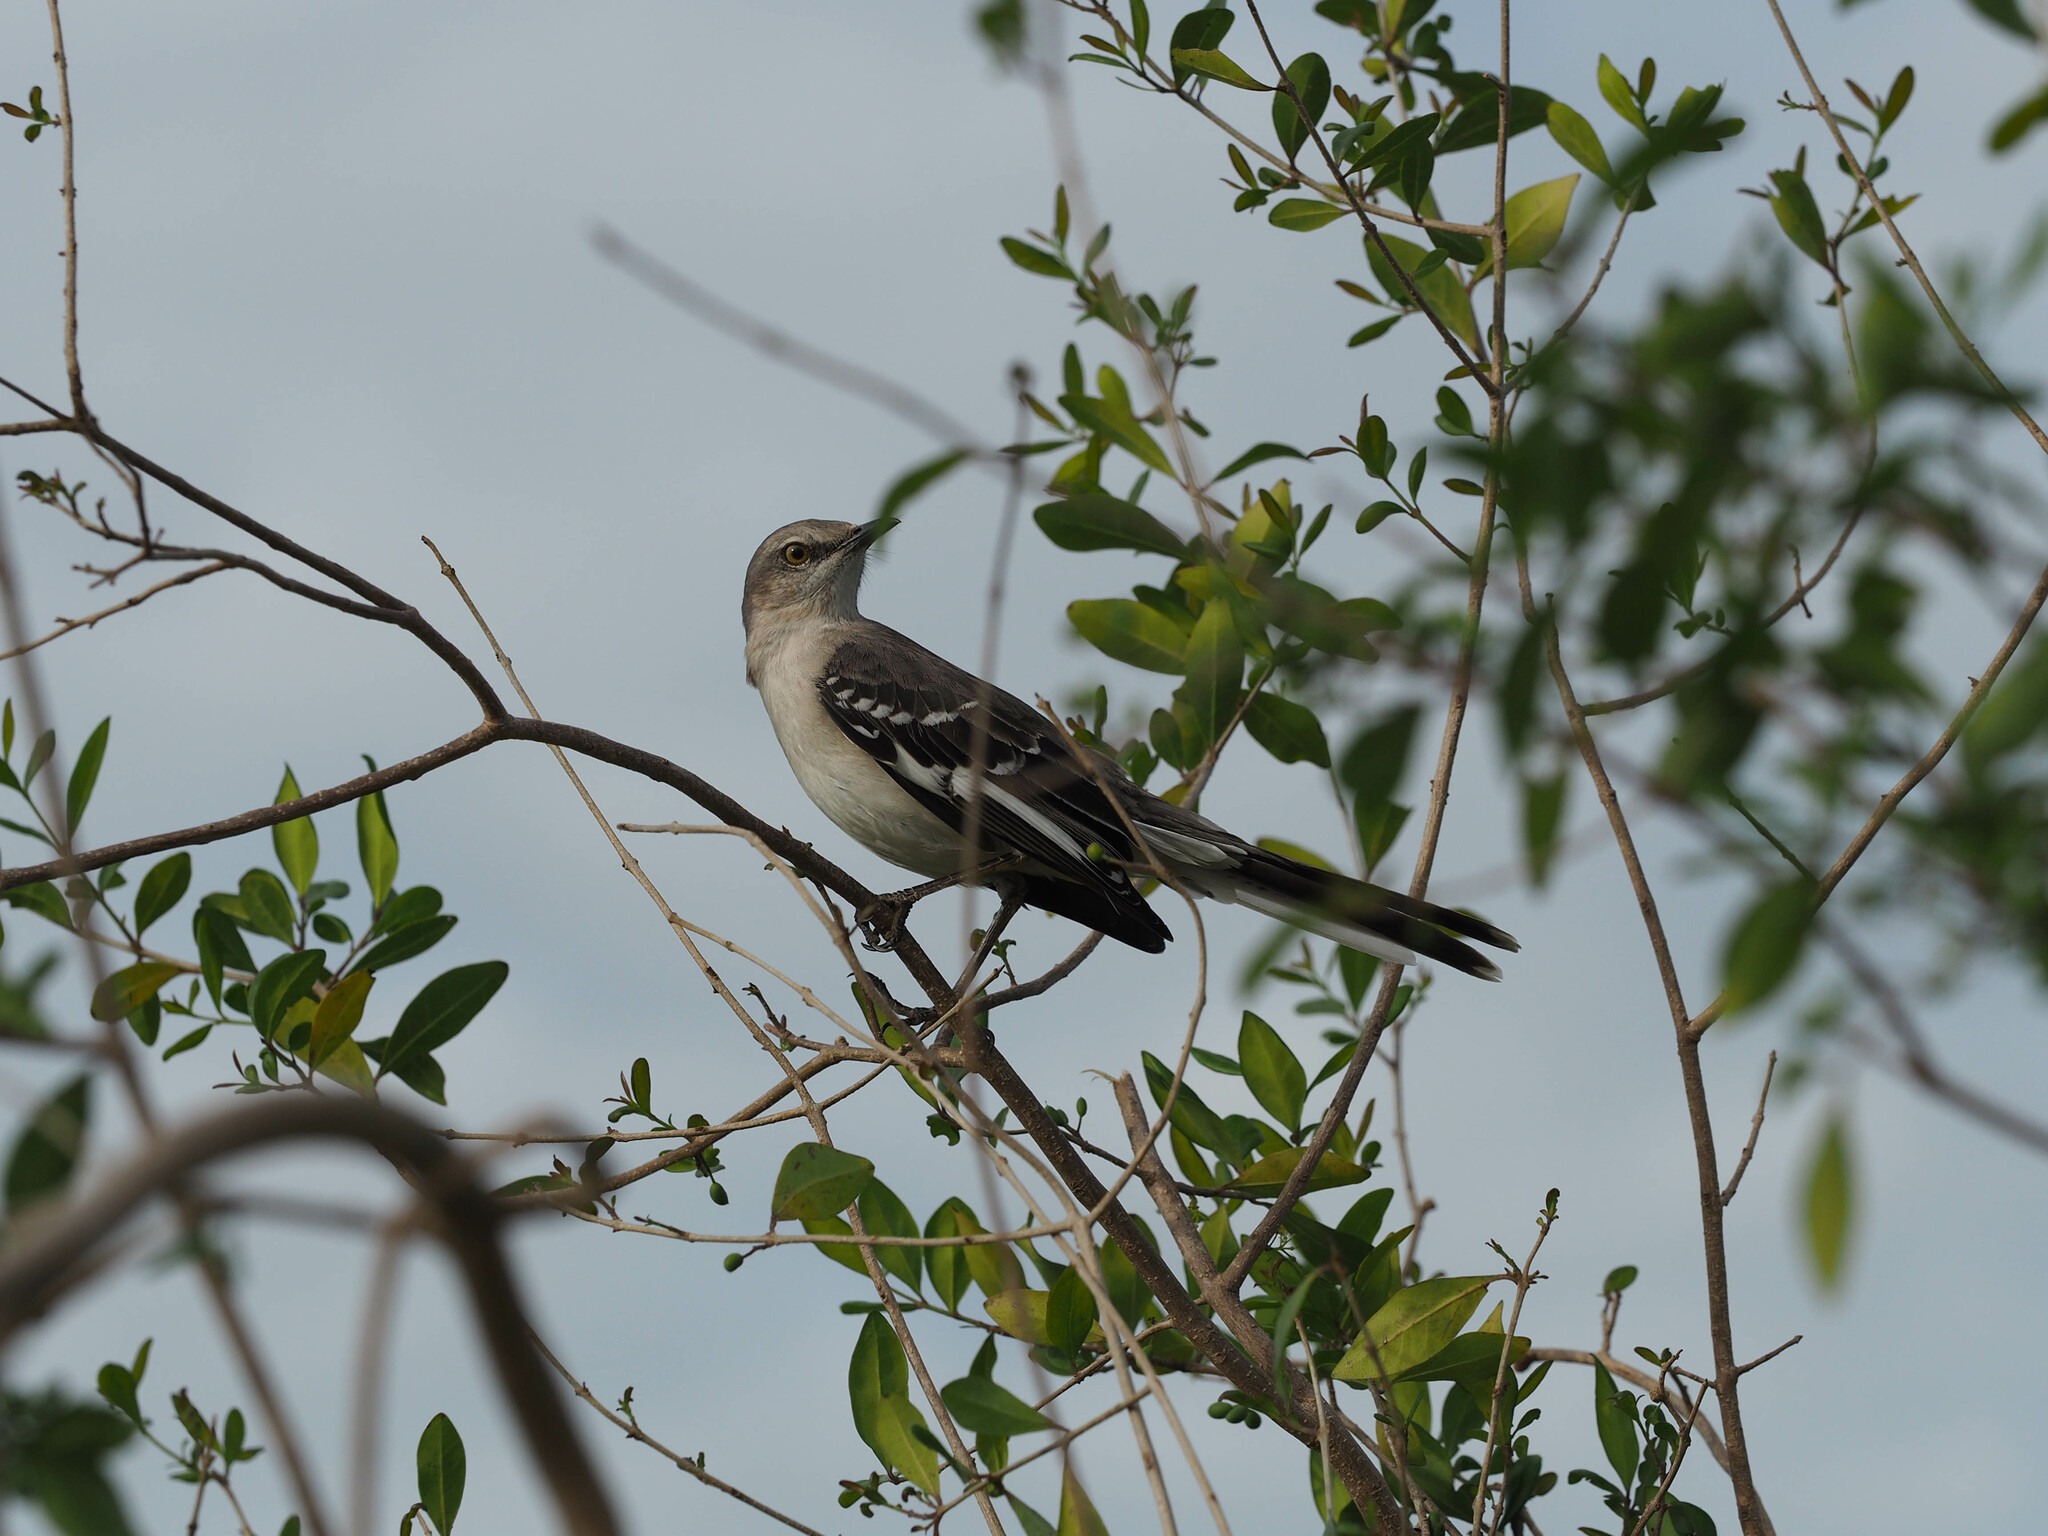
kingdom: Animalia
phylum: Chordata
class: Aves
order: Passeriformes
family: Mimidae
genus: Mimus
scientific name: Mimus polyglottos
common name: Northern mockingbird
